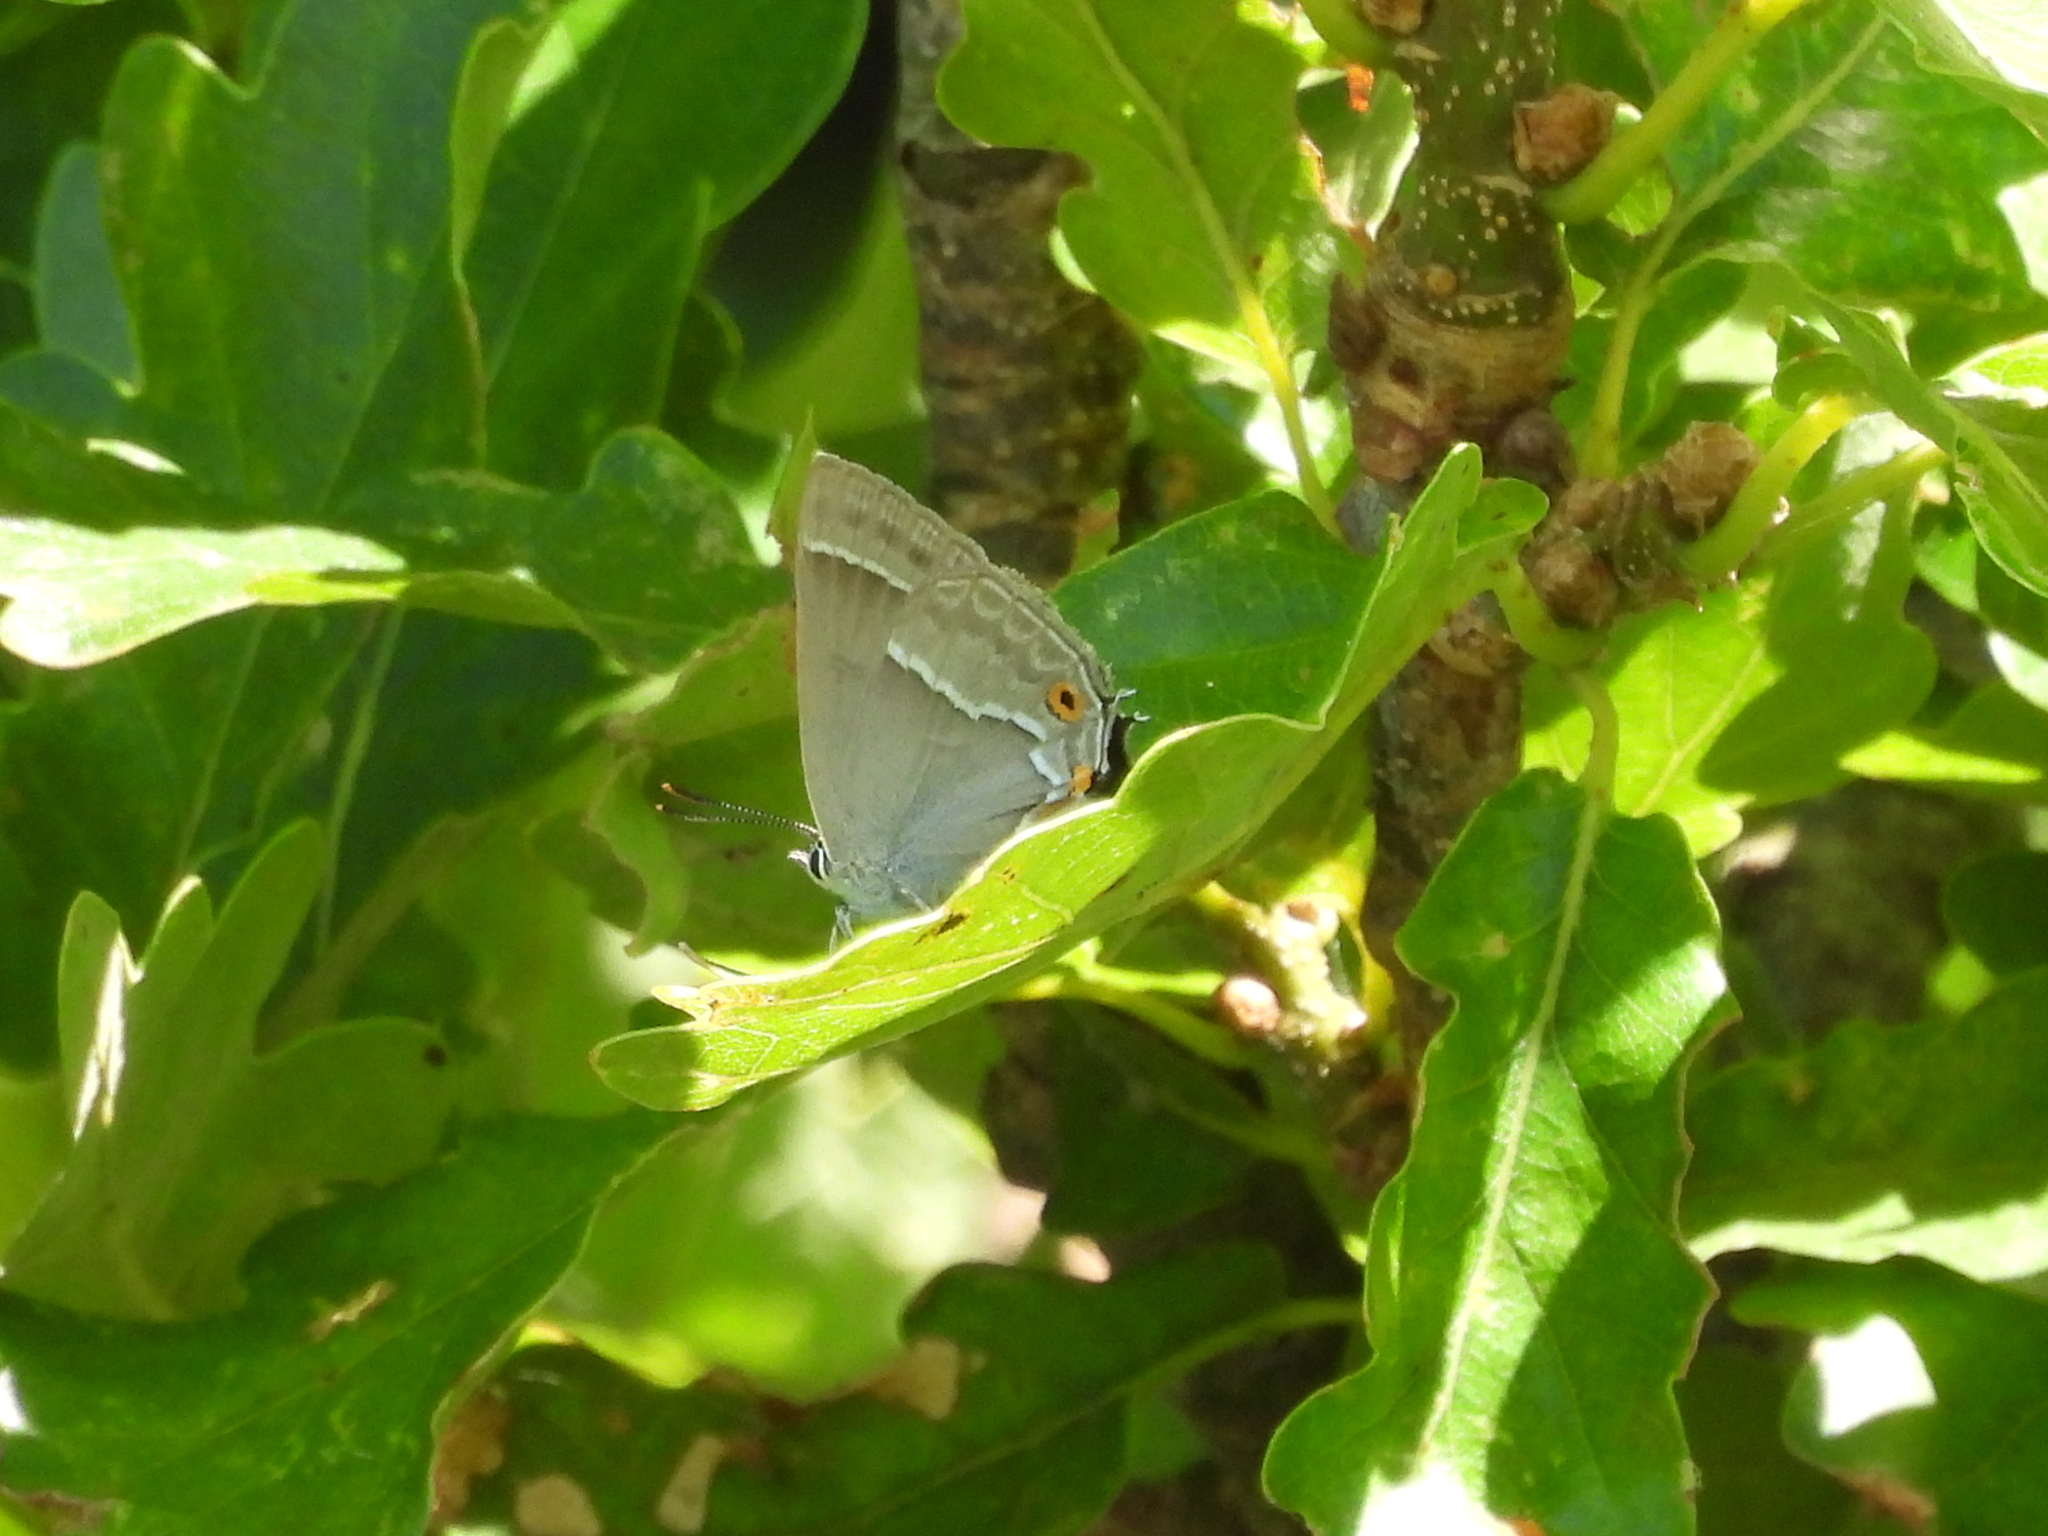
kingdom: Animalia
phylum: Arthropoda
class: Insecta
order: Lepidoptera
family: Lycaenidae
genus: Quercusia
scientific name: Quercusia quercus
